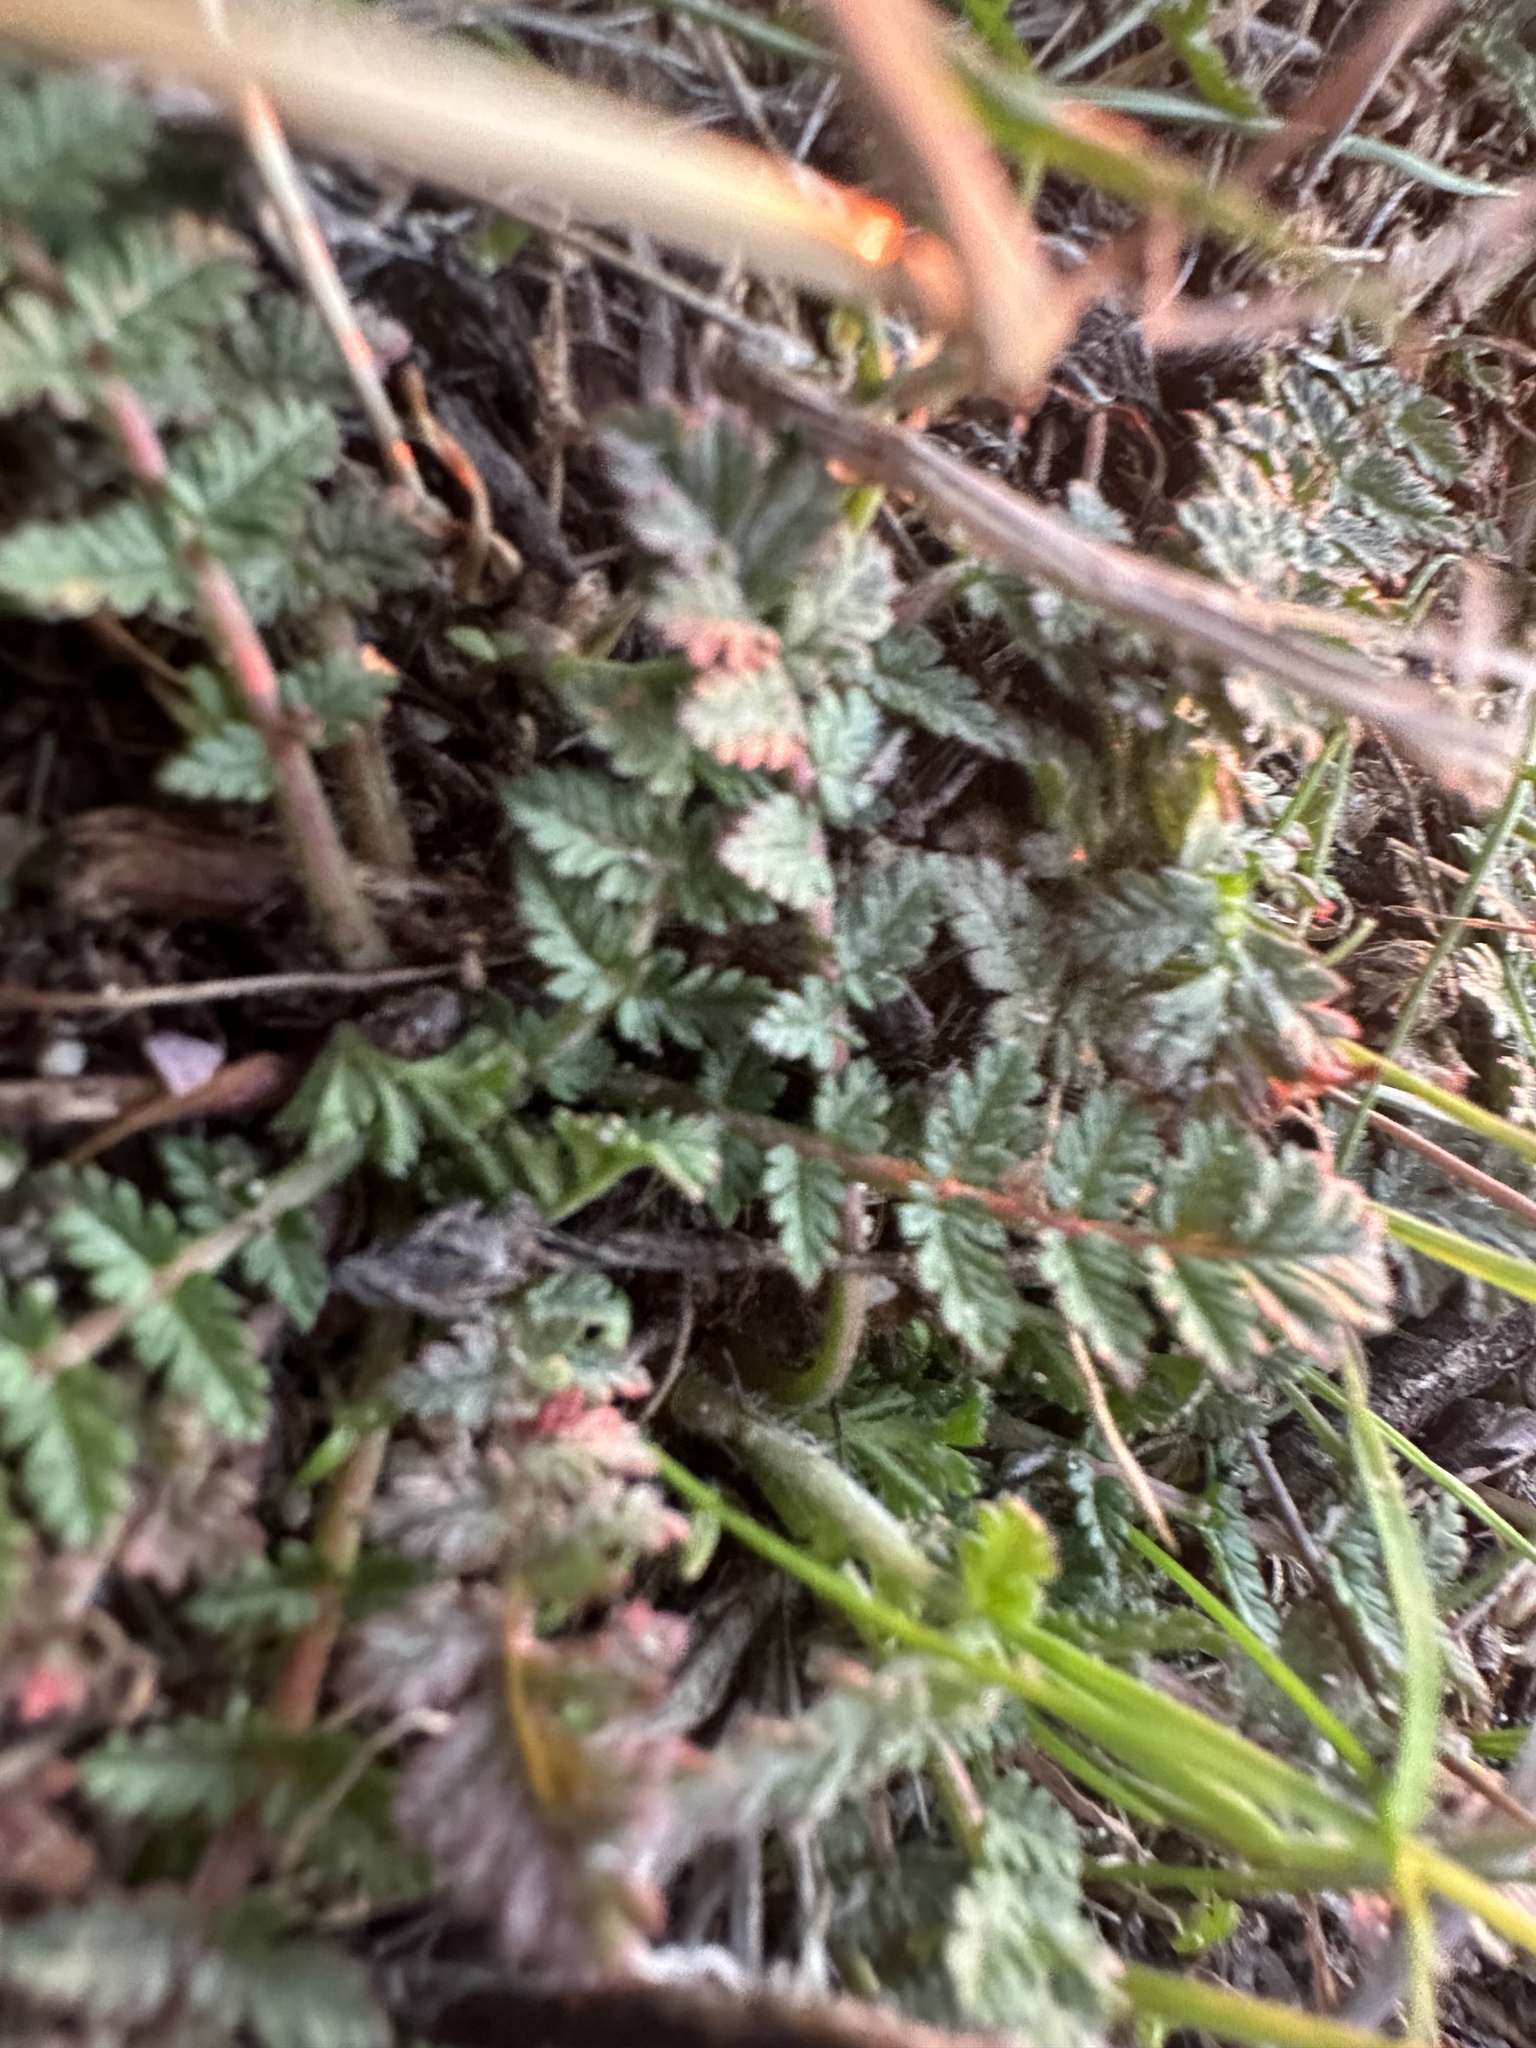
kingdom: Plantae
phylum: Tracheophyta
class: Magnoliopsida
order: Geraniales
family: Geraniaceae
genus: Erodium
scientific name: Erodium cicutarium
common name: Common stork's-bill
